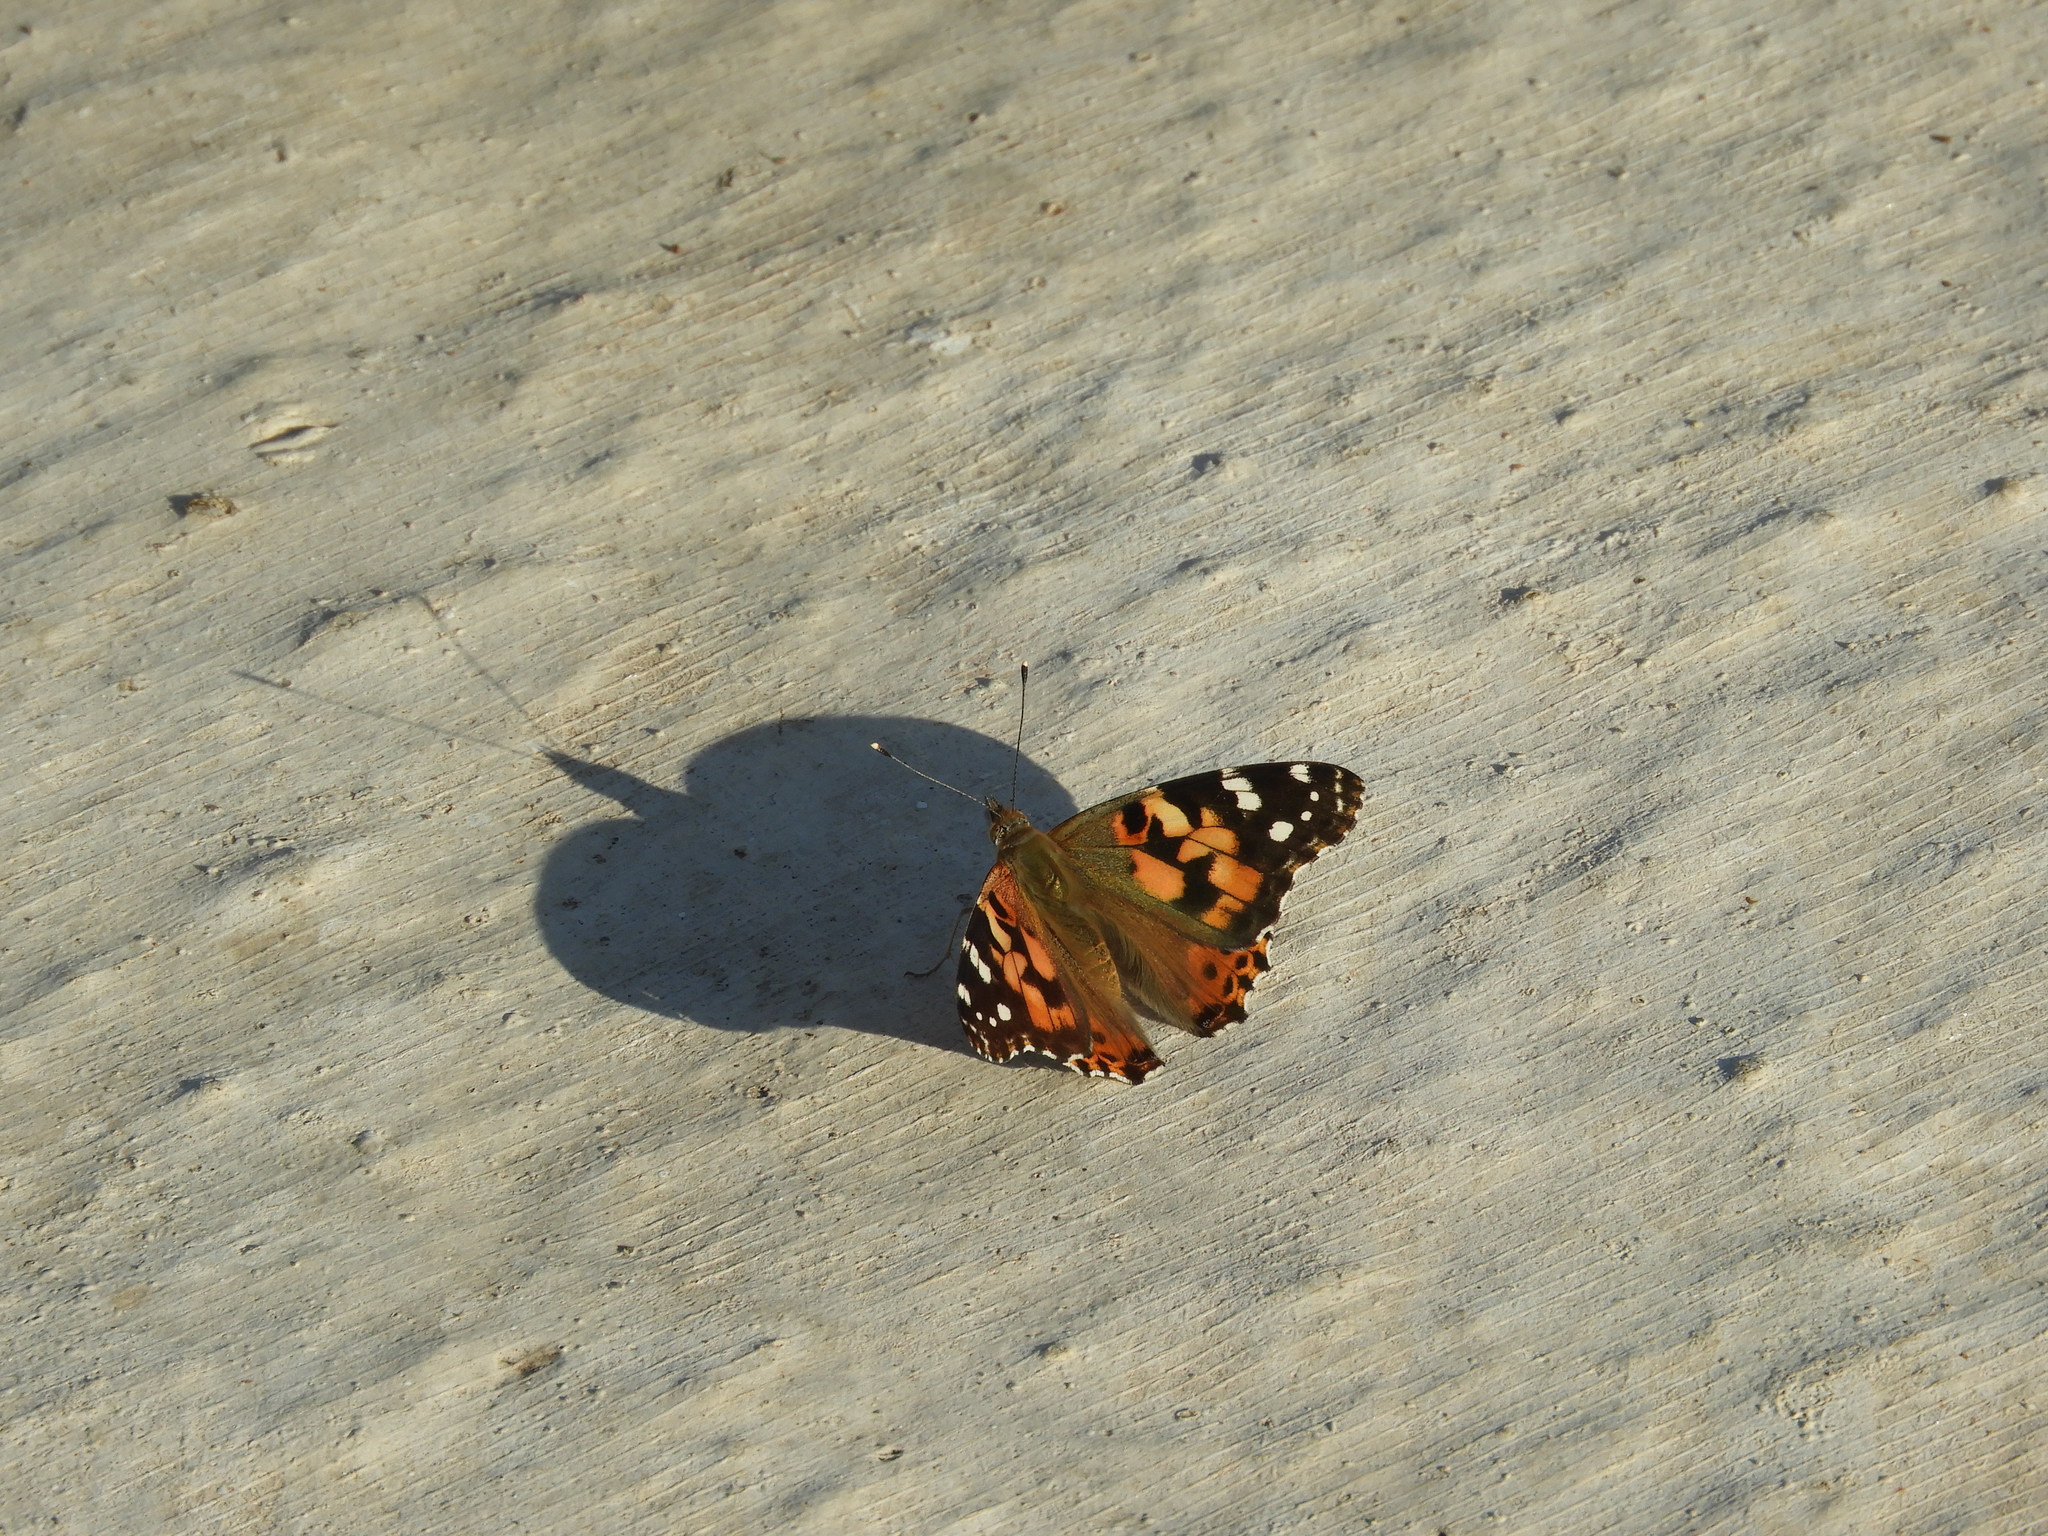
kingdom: Animalia
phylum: Arthropoda
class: Insecta
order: Lepidoptera
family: Nymphalidae
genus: Vanessa
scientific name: Vanessa cardui
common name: Painted lady
